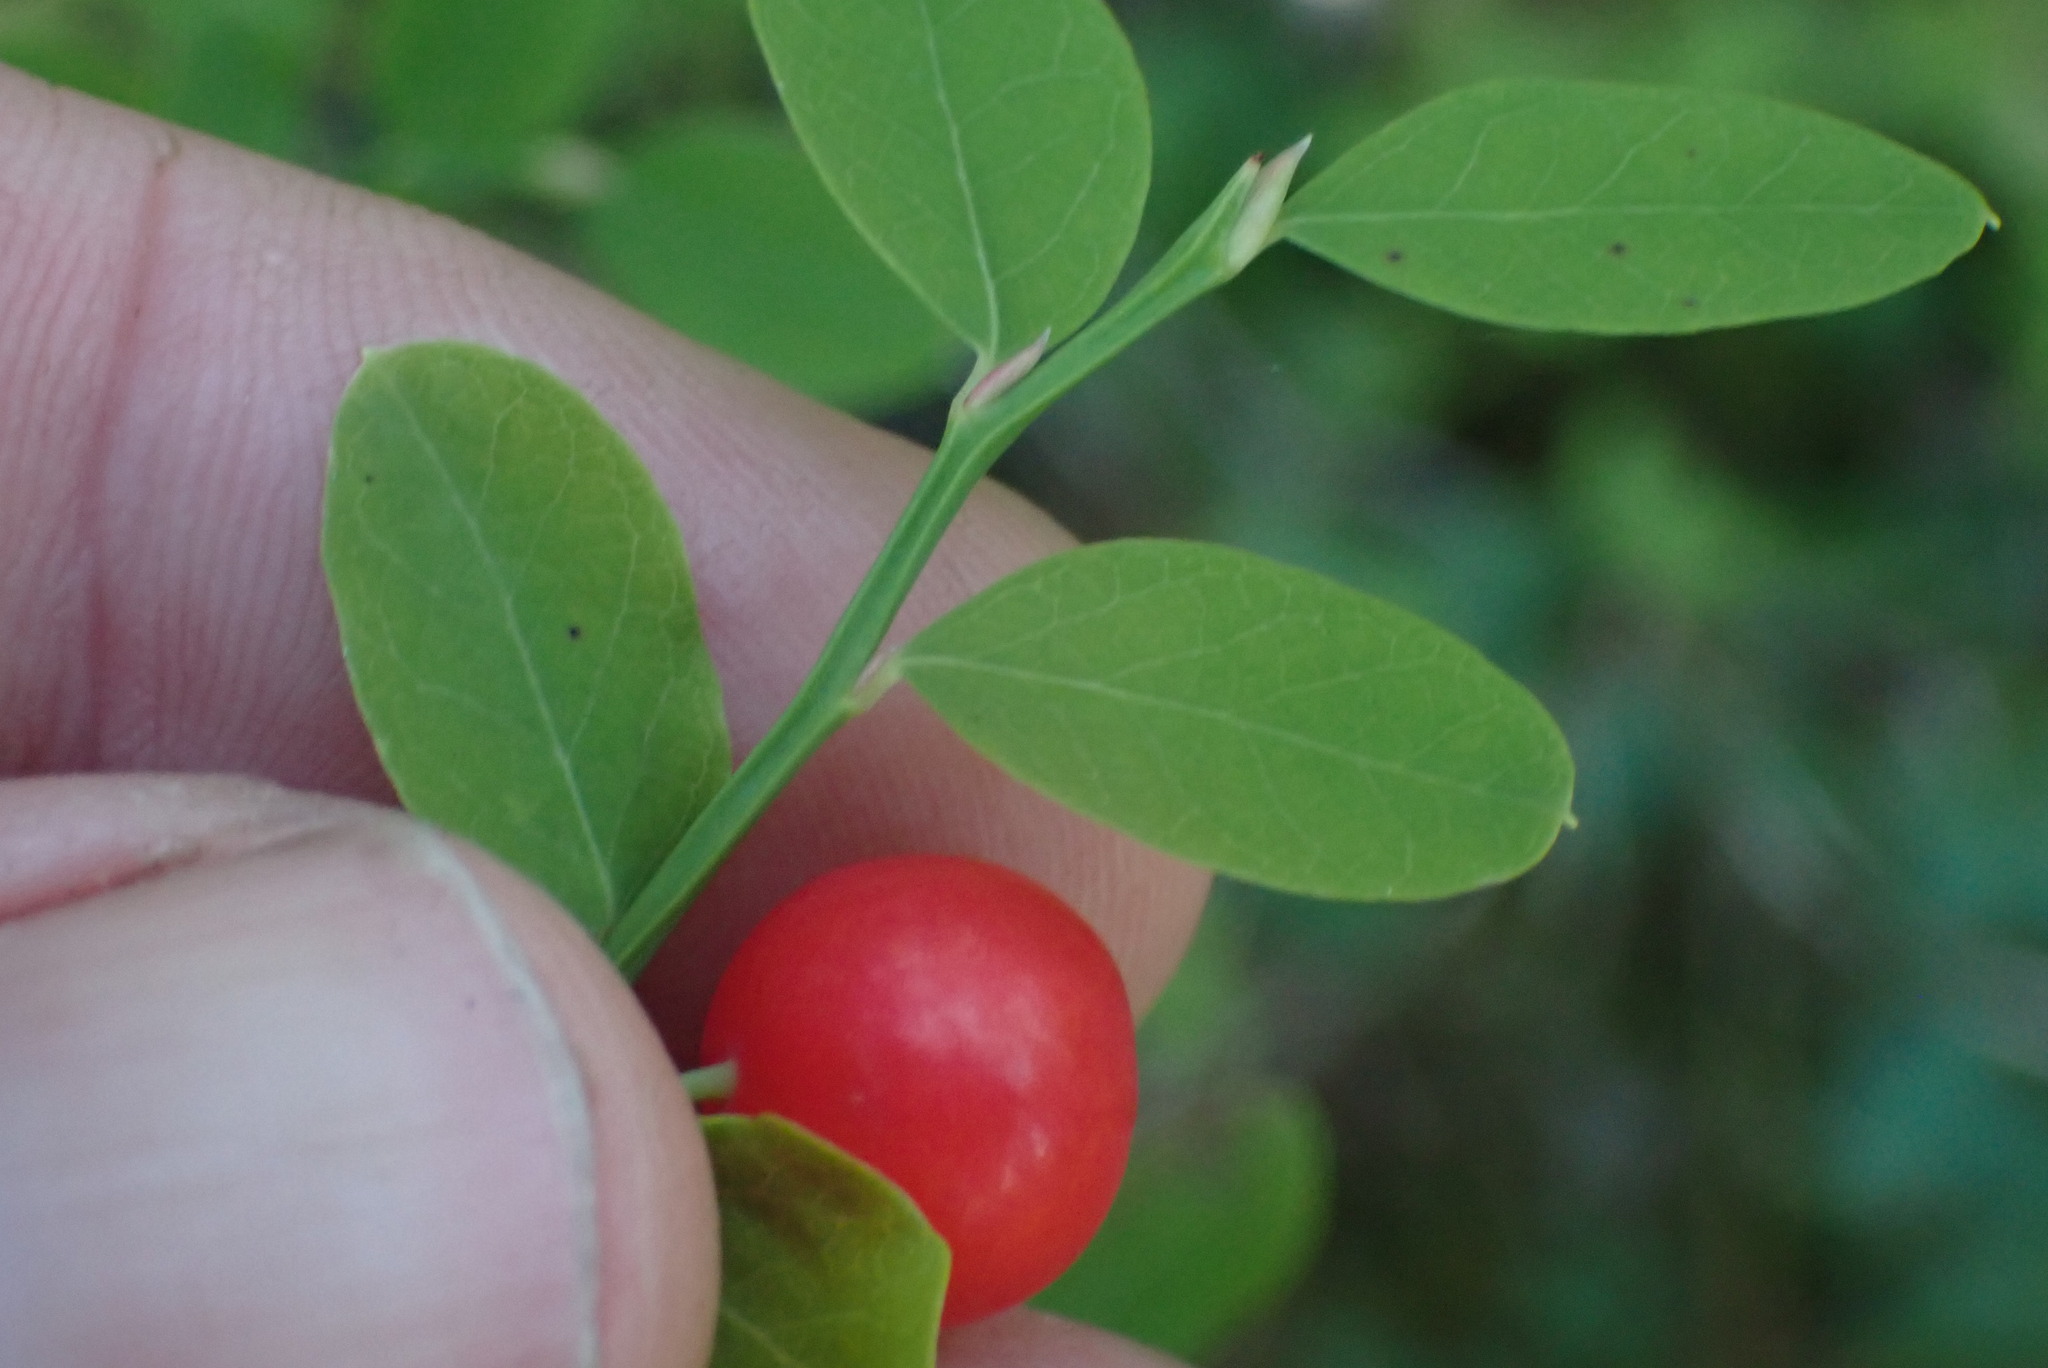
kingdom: Plantae
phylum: Tracheophyta
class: Magnoliopsida
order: Ericales
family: Ericaceae
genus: Vaccinium
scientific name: Vaccinium parvifolium
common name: Red-huckleberry
